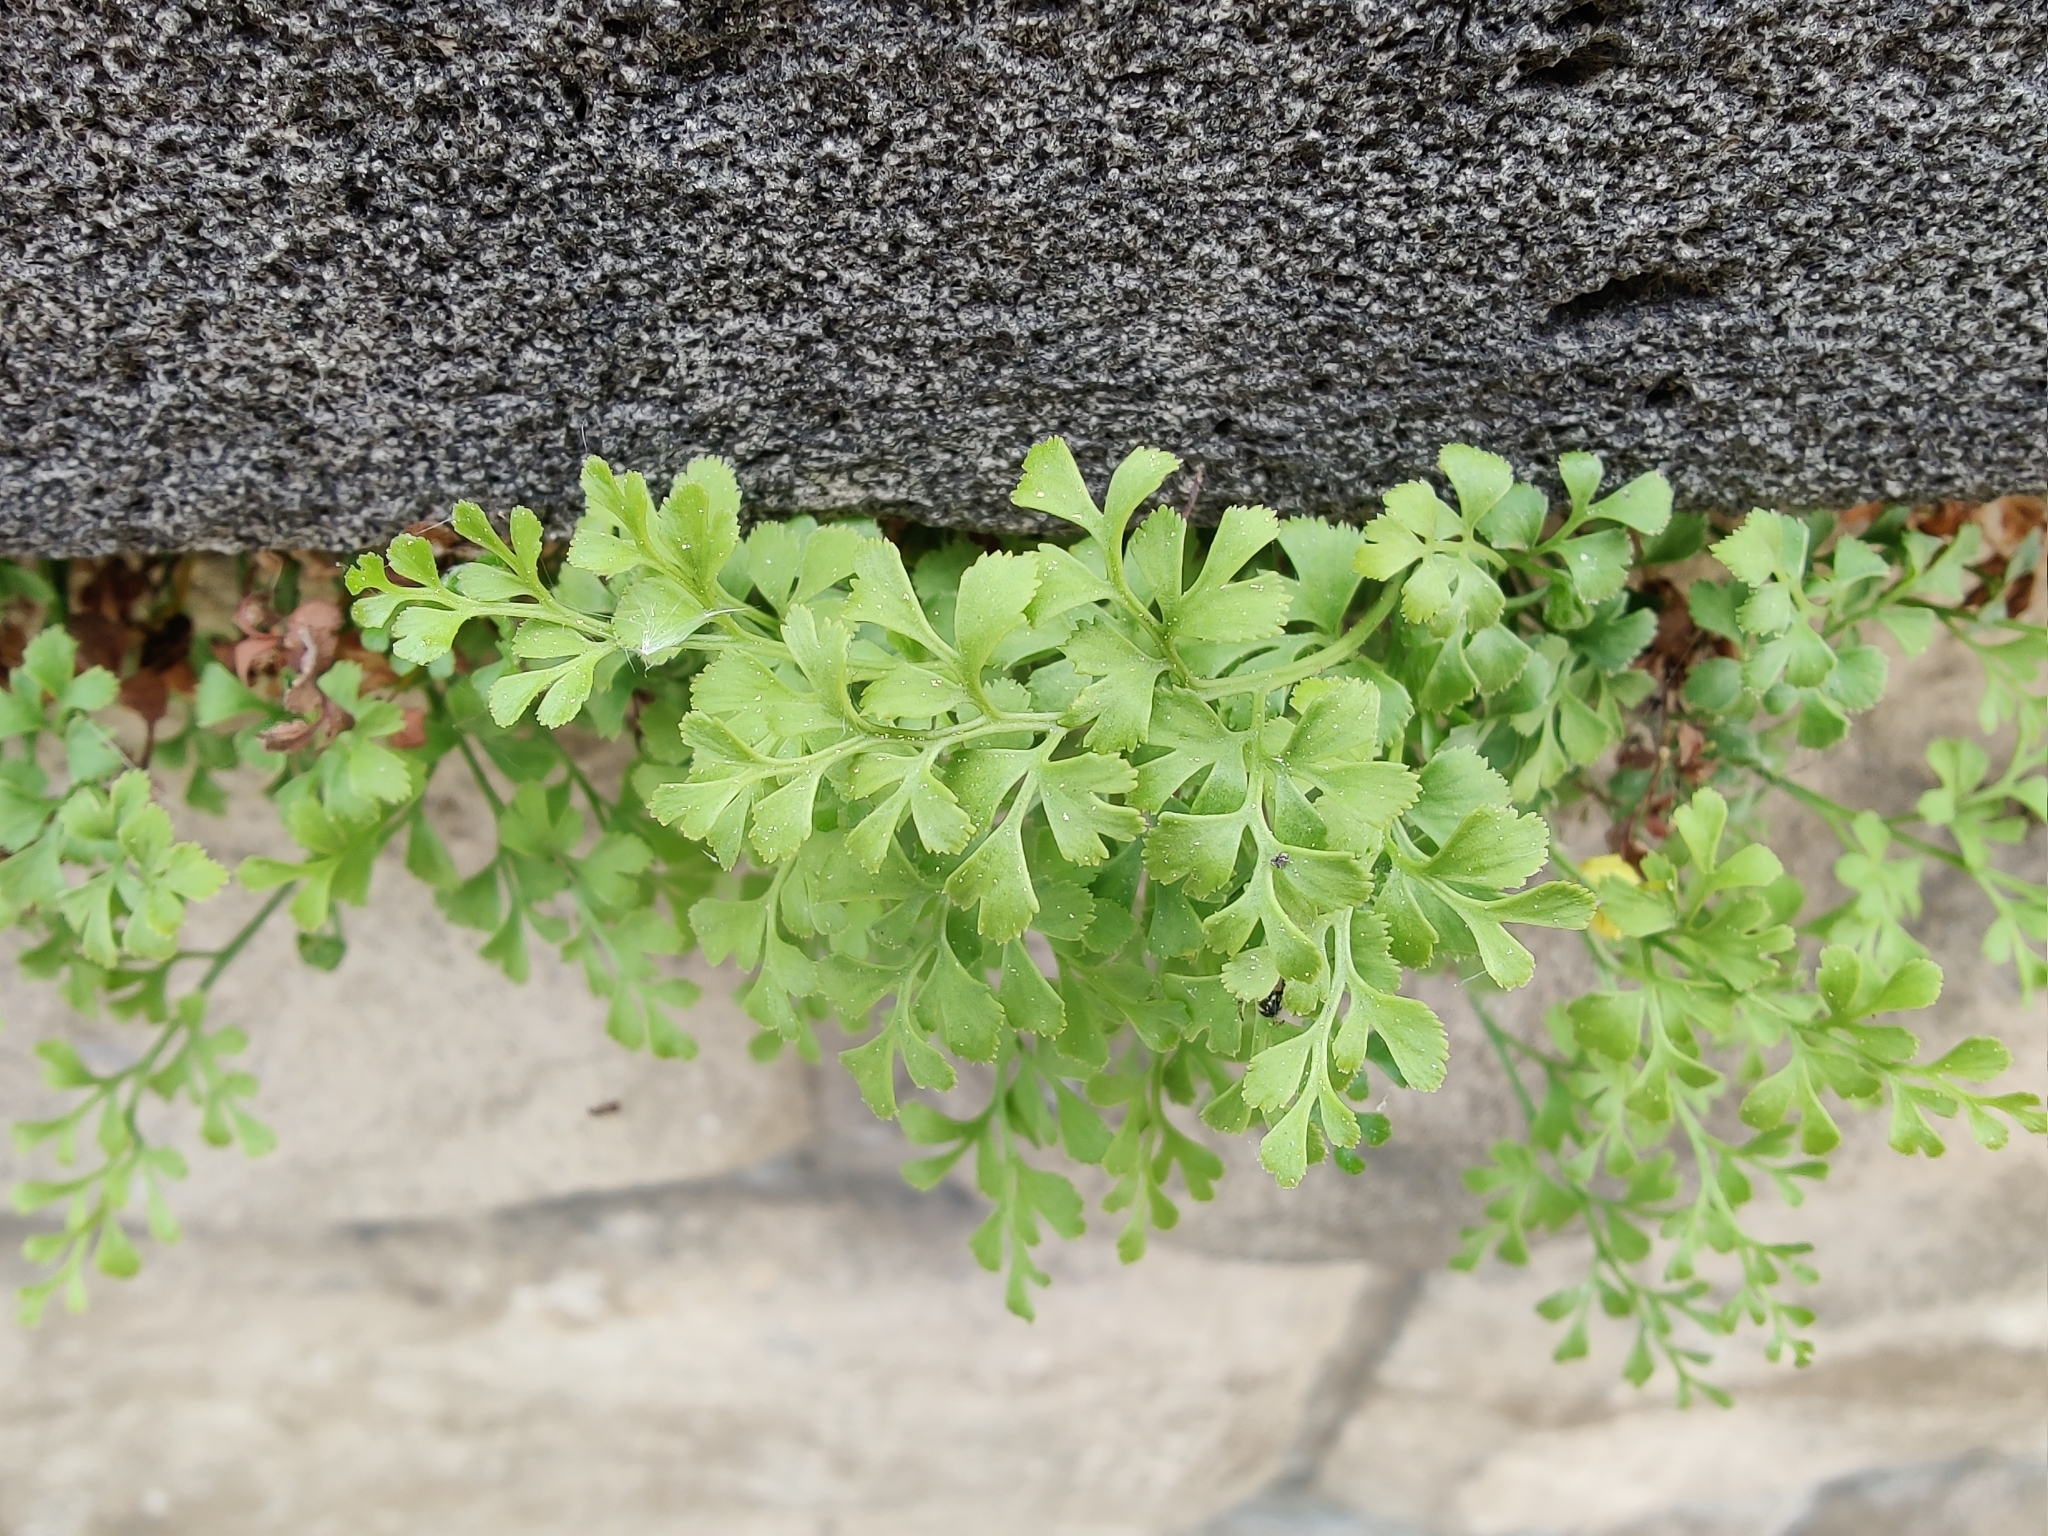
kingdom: Plantae
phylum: Tracheophyta
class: Polypodiopsida
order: Polypodiales
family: Aspleniaceae
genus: Asplenium
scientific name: Asplenium ruta-muraria
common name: Wall-rue
